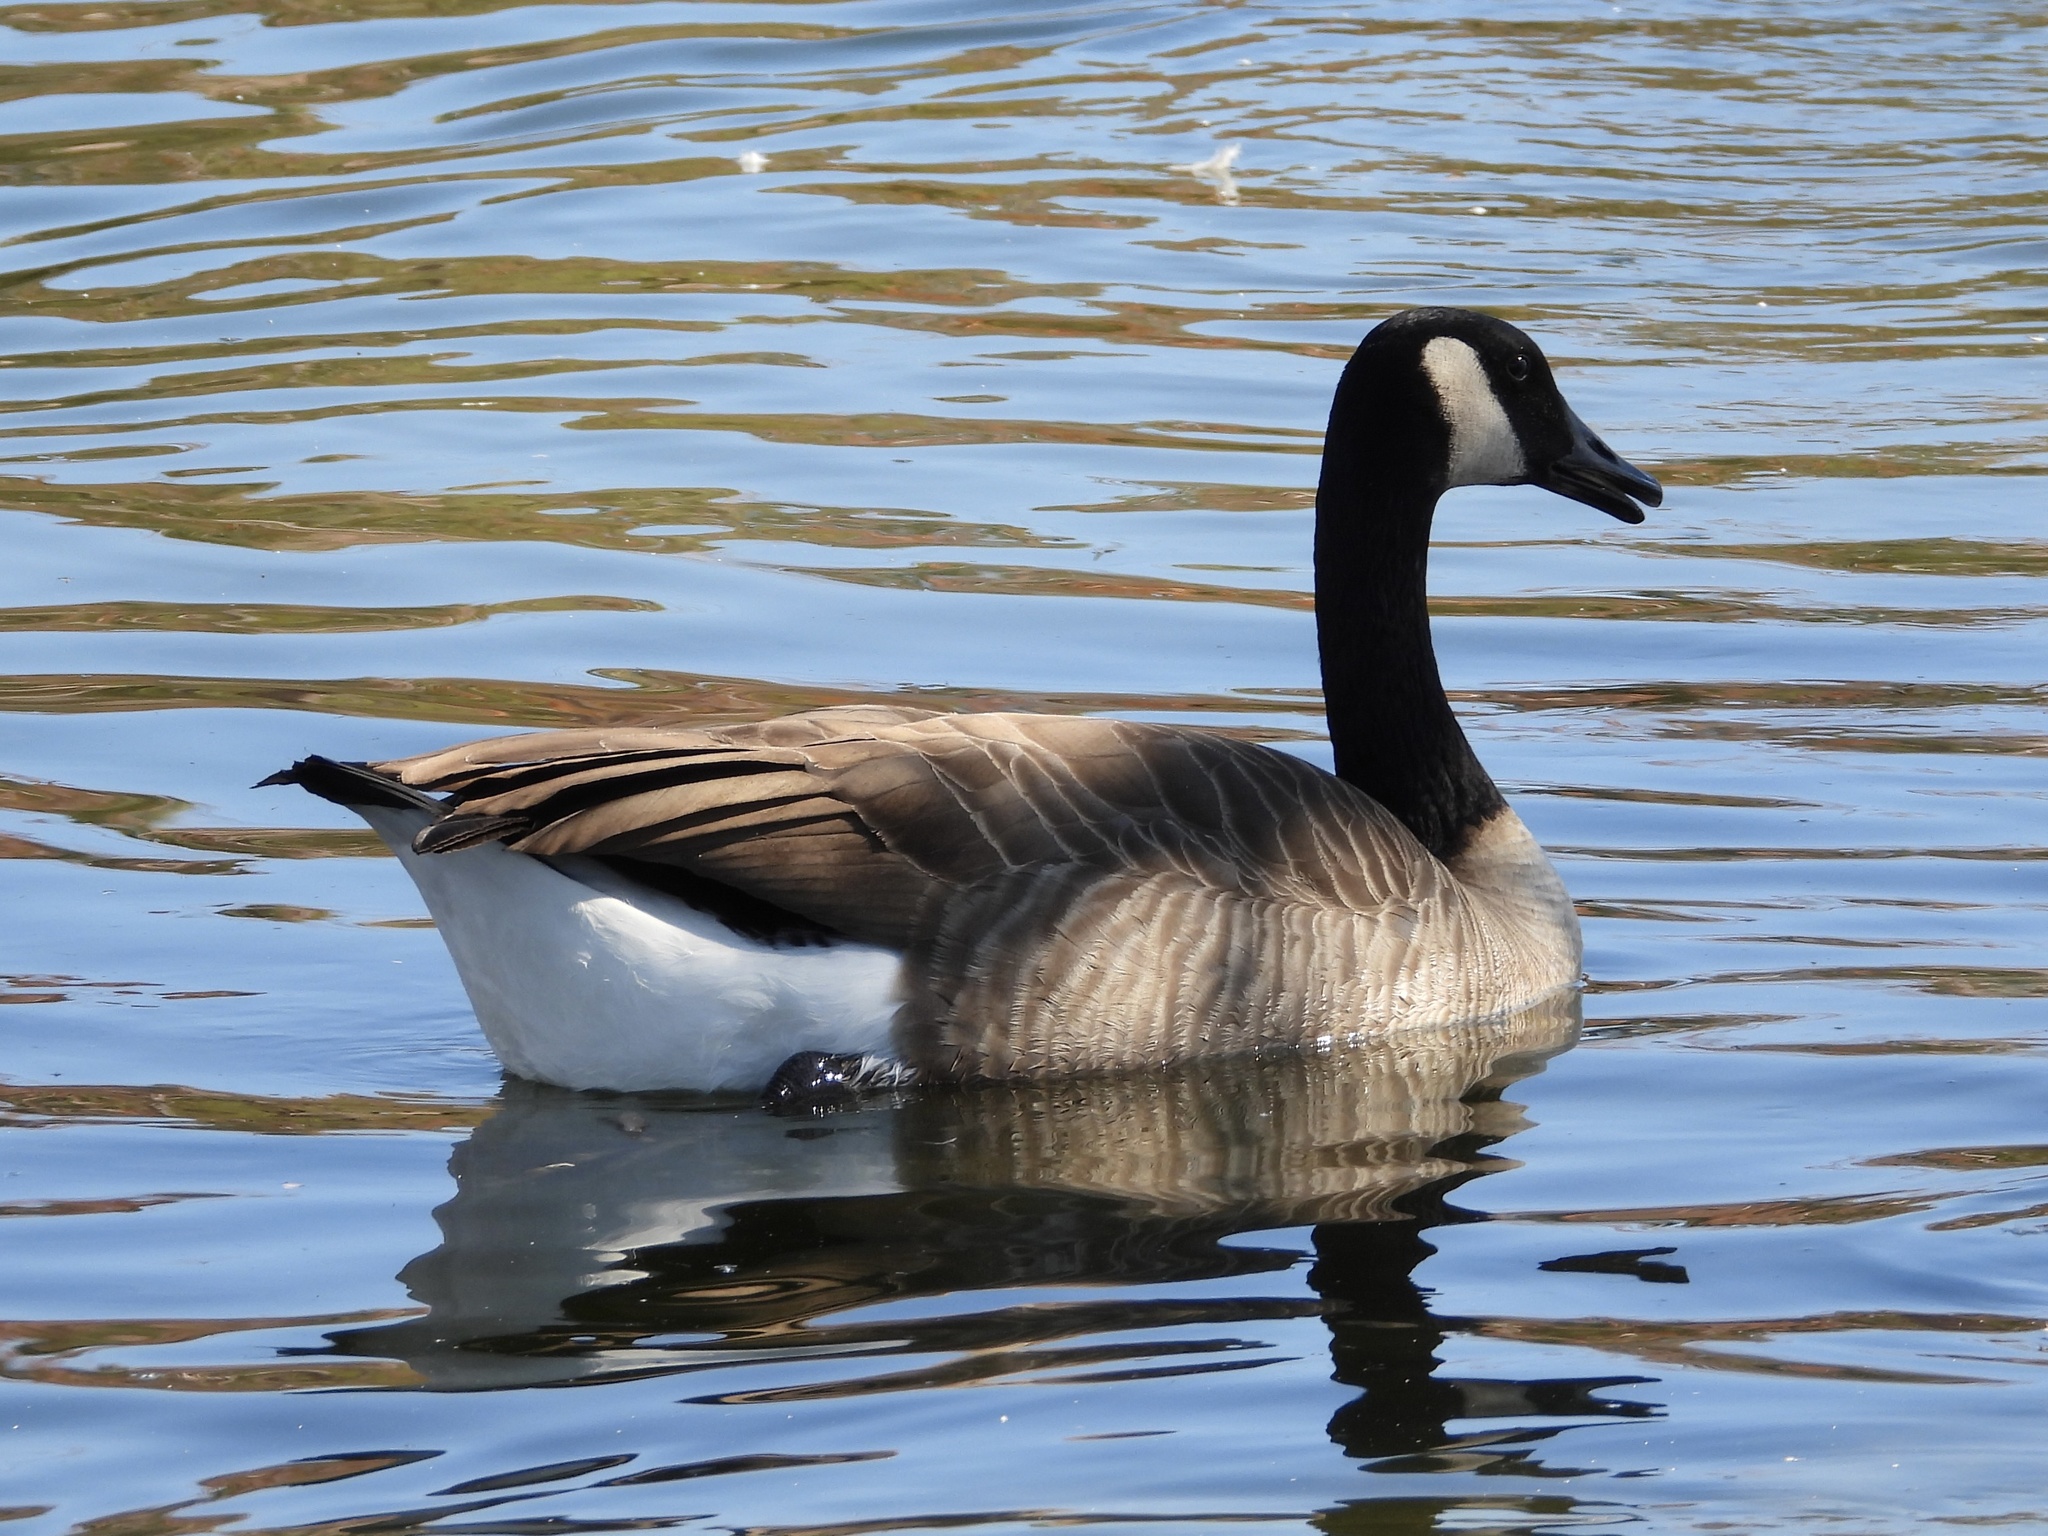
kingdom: Animalia
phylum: Chordata
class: Aves
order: Anseriformes
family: Anatidae
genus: Branta
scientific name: Branta canadensis
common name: Canada goose
